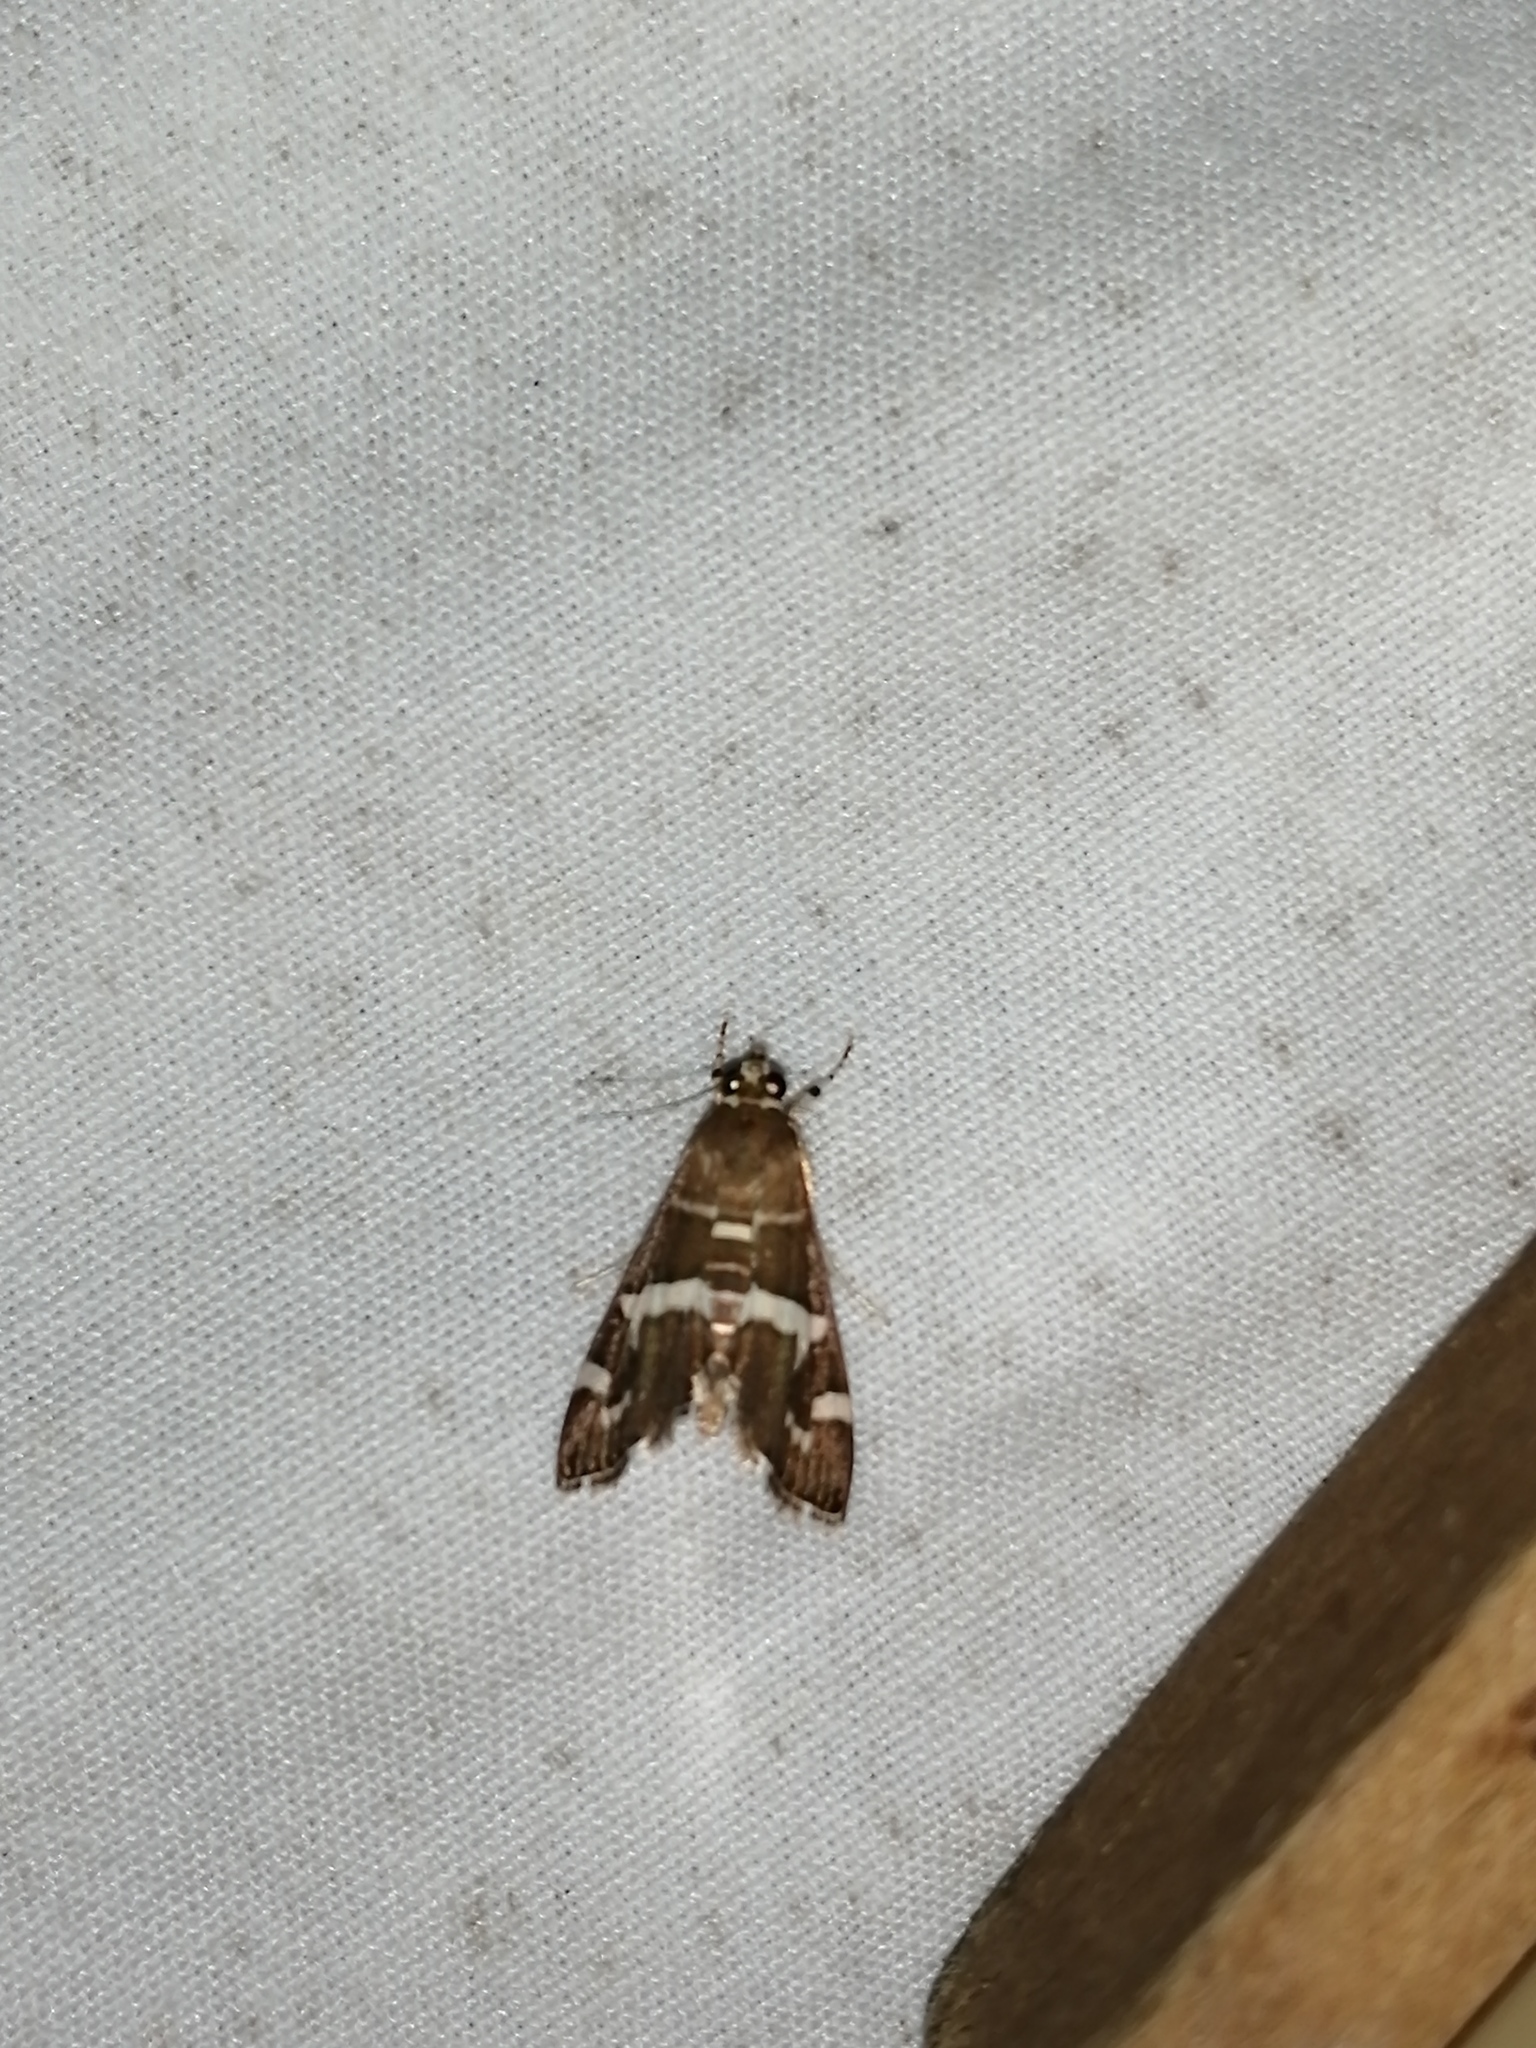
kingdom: Animalia
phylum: Arthropoda
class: Insecta
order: Lepidoptera
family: Crambidae
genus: Spoladea
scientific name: Spoladea recurvalis
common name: Beet webworm moth
